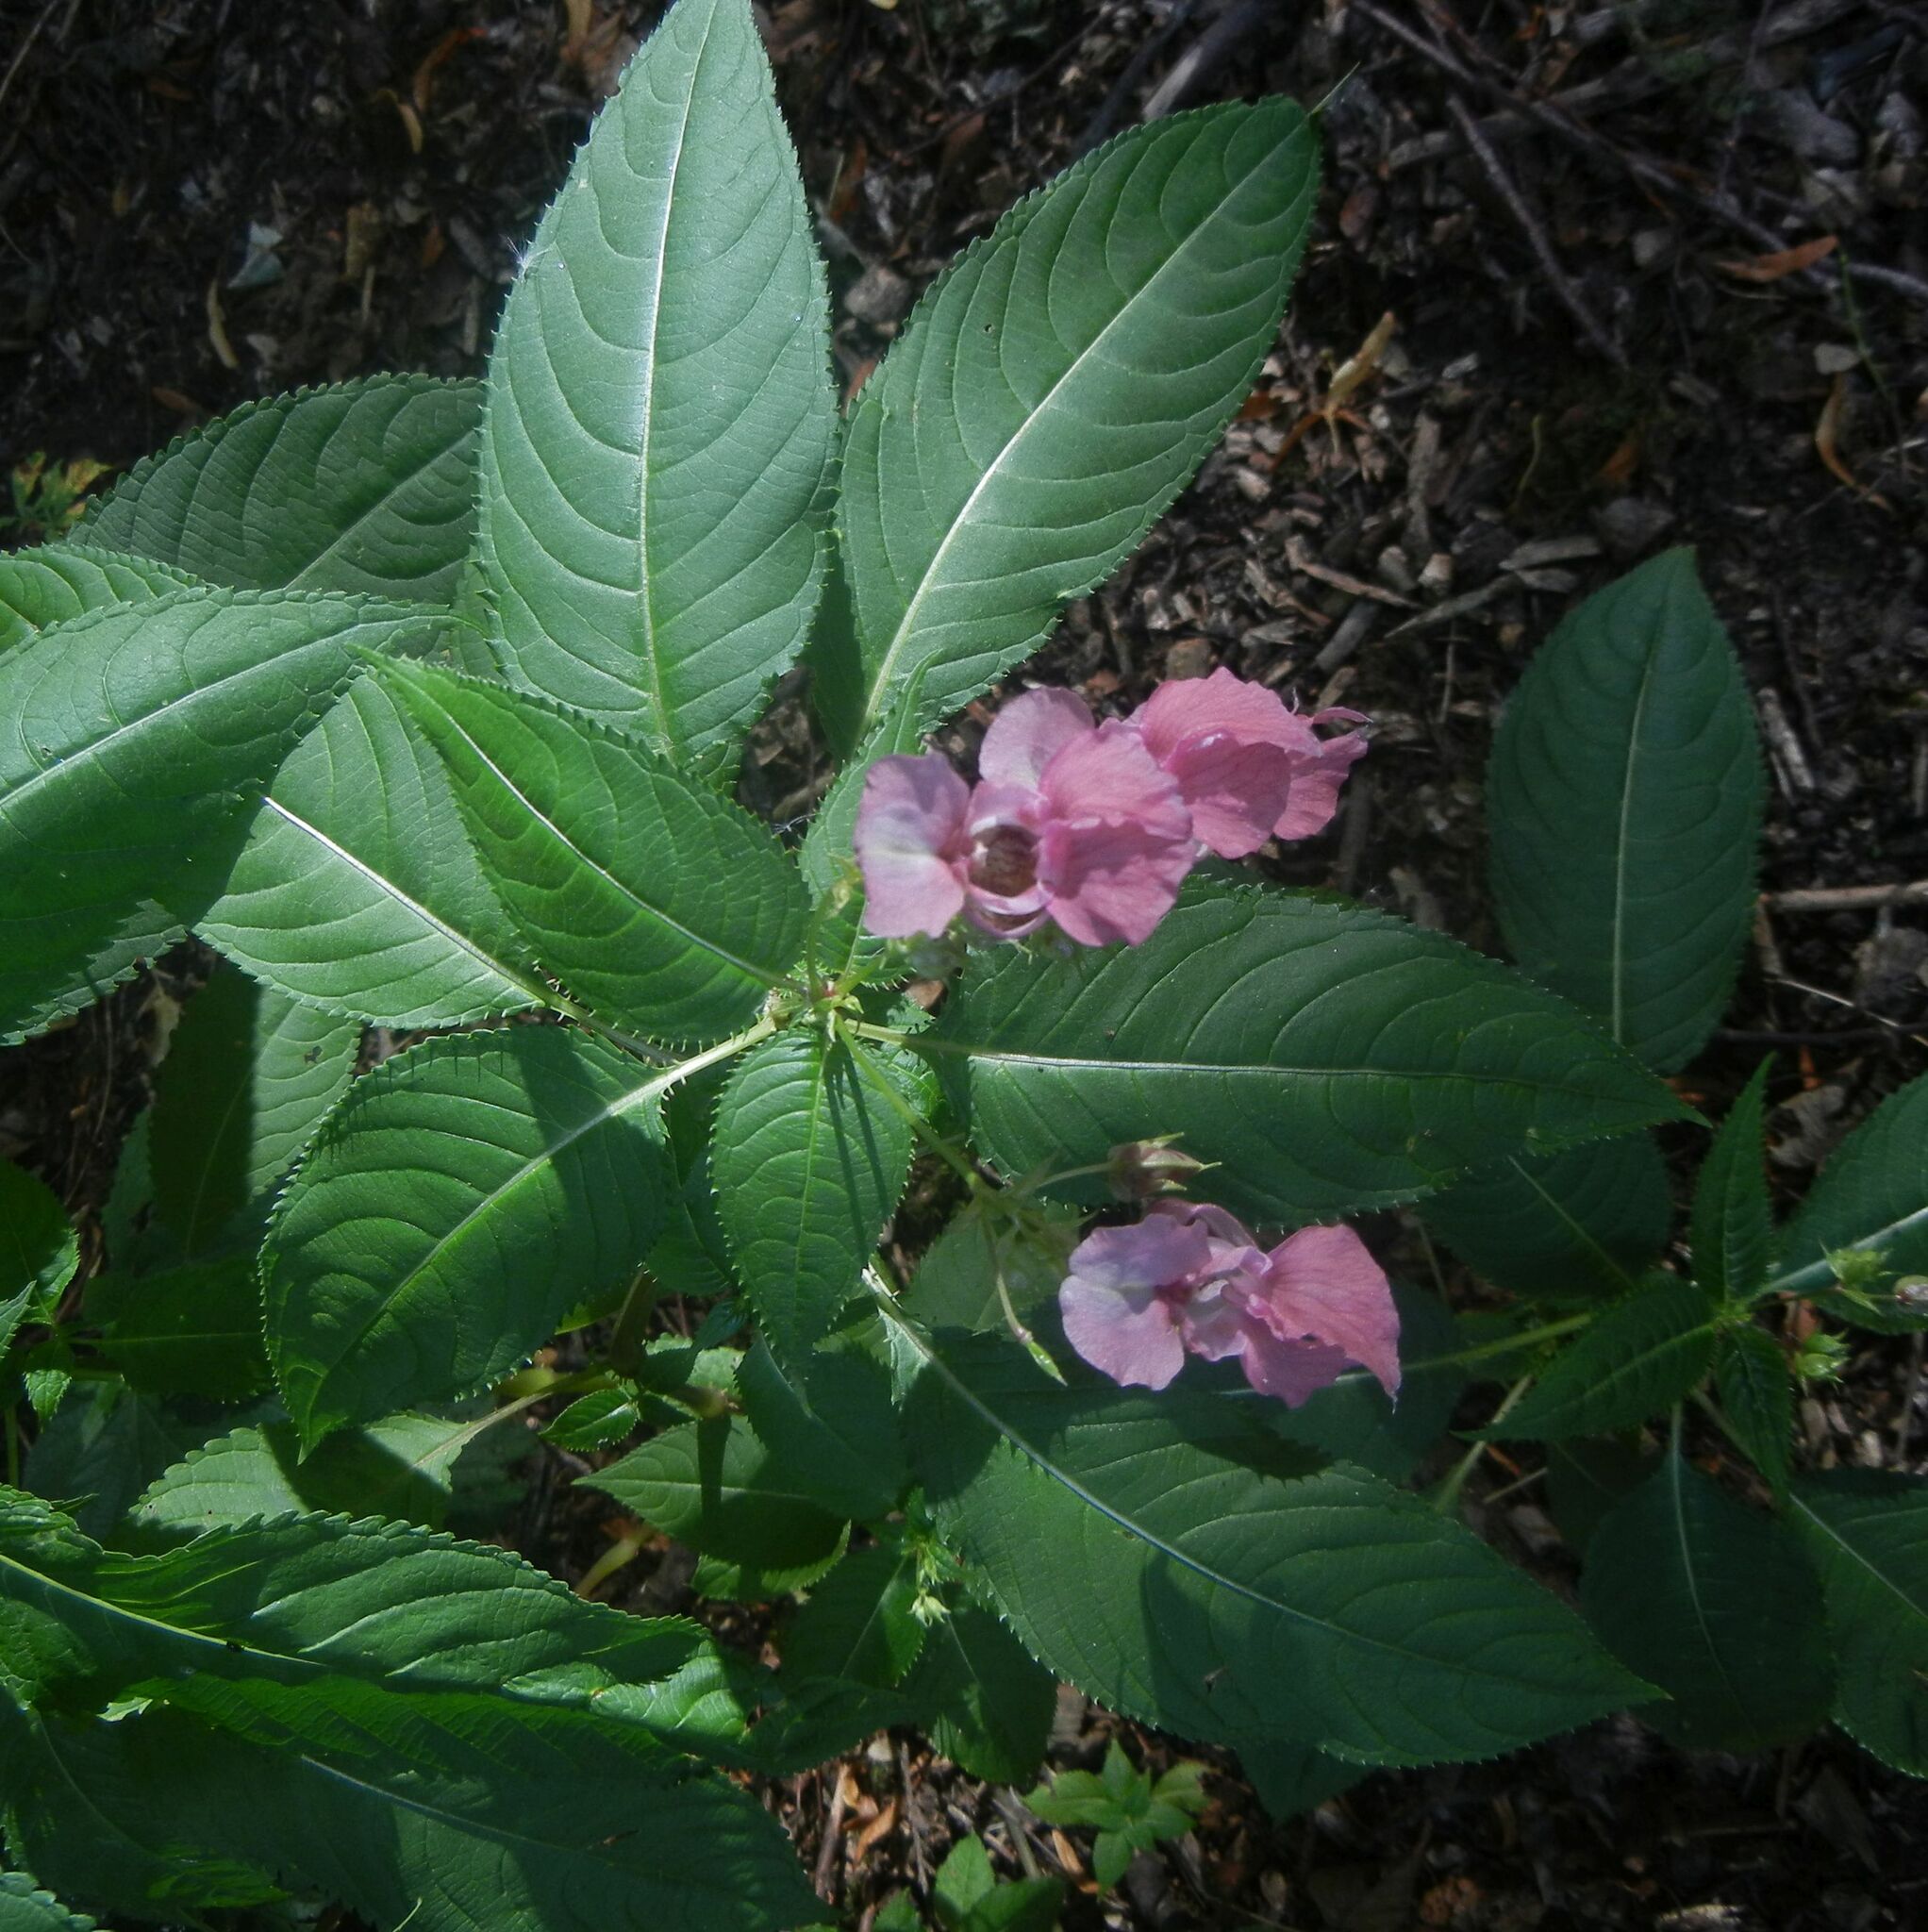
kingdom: Plantae
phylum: Tracheophyta
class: Magnoliopsida
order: Ericales
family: Balsaminaceae
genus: Impatiens
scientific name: Impatiens glandulifera
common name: Himalayan balsam
